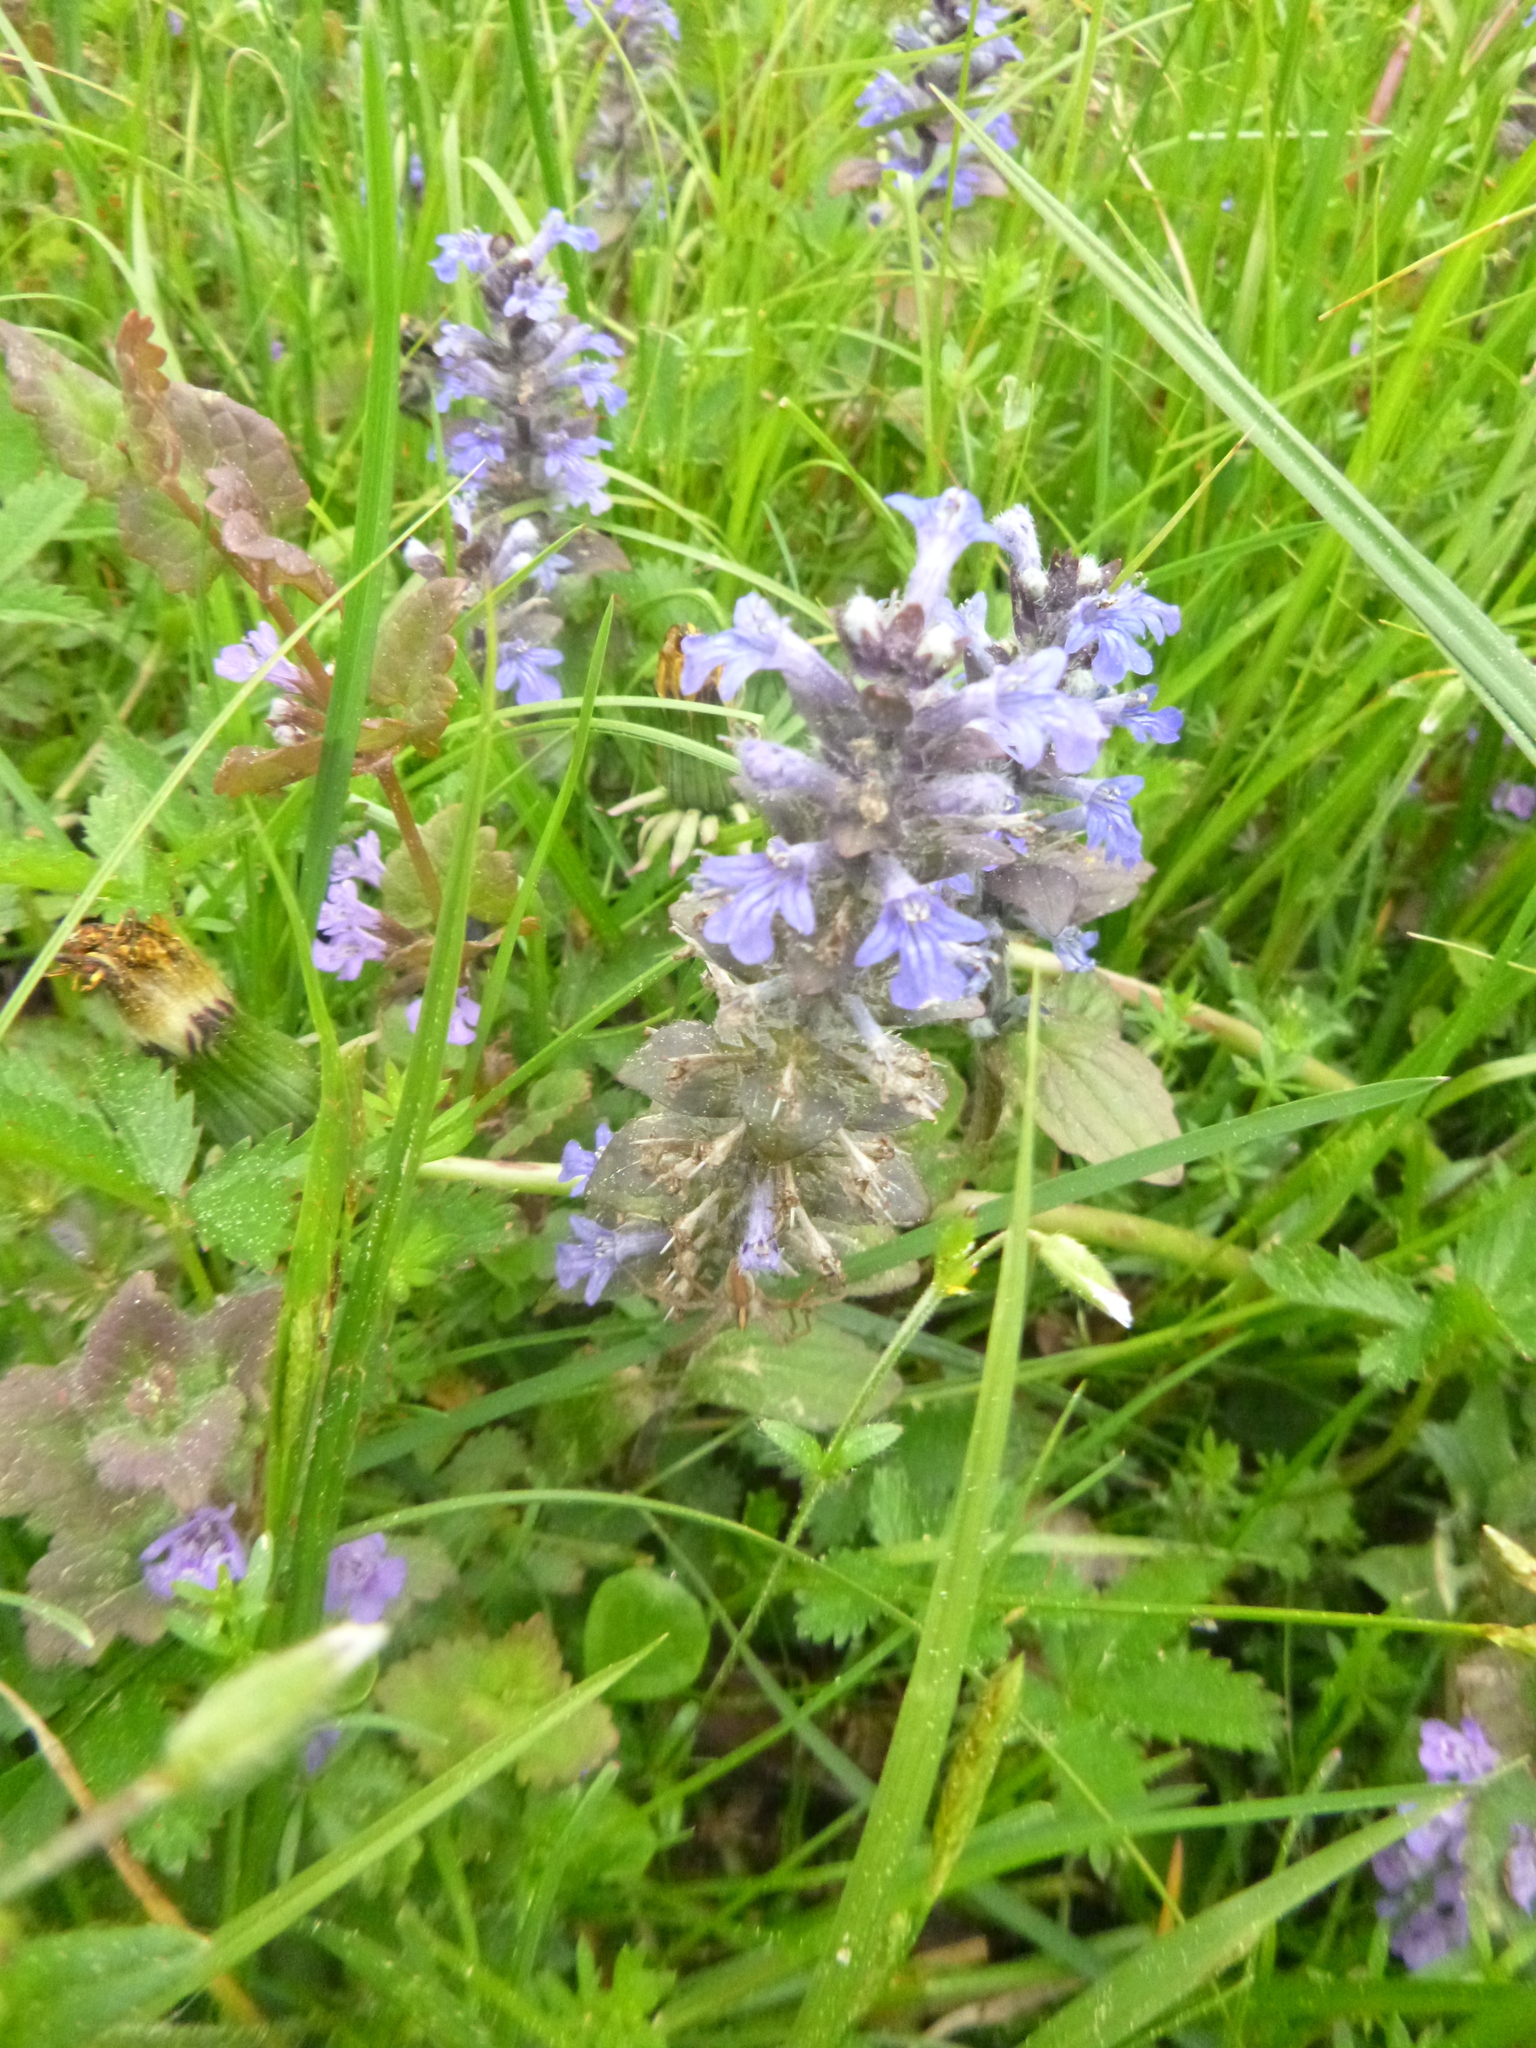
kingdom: Plantae
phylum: Tracheophyta
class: Magnoliopsida
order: Lamiales
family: Lamiaceae
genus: Ajuga
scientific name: Ajuga reptans
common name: Bugle
